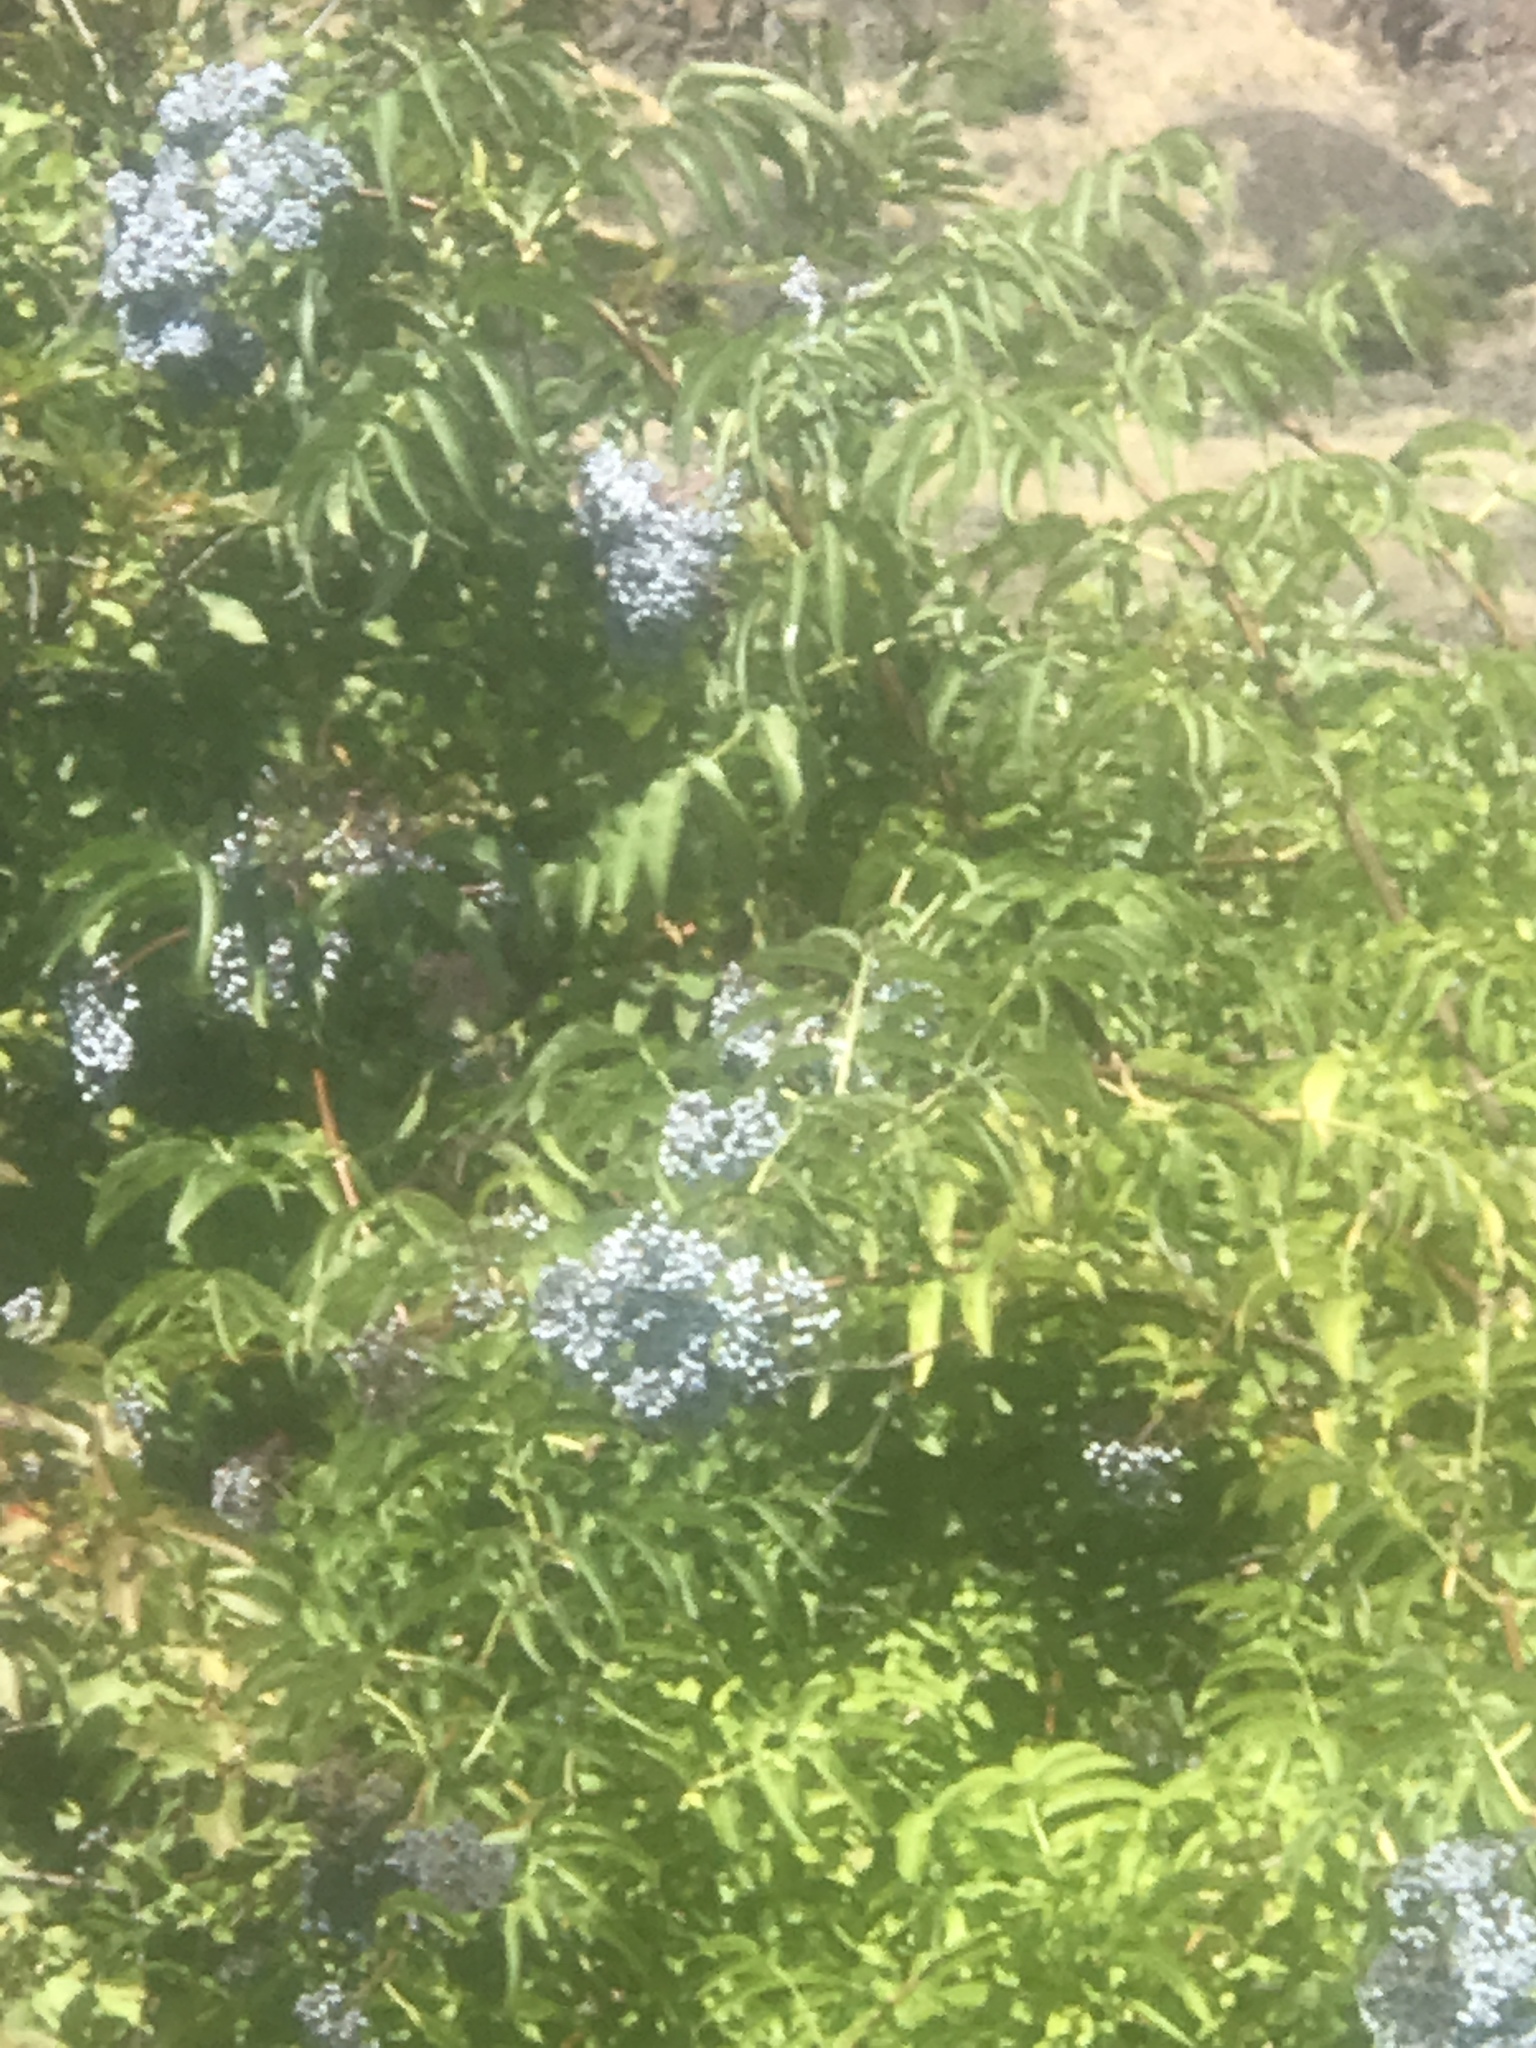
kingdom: Plantae
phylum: Tracheophyta
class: Magnoliopsida
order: Dipsacales
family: Viburnaceae
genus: Sambucus
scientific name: Sambucus cerulea
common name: Blue elder
